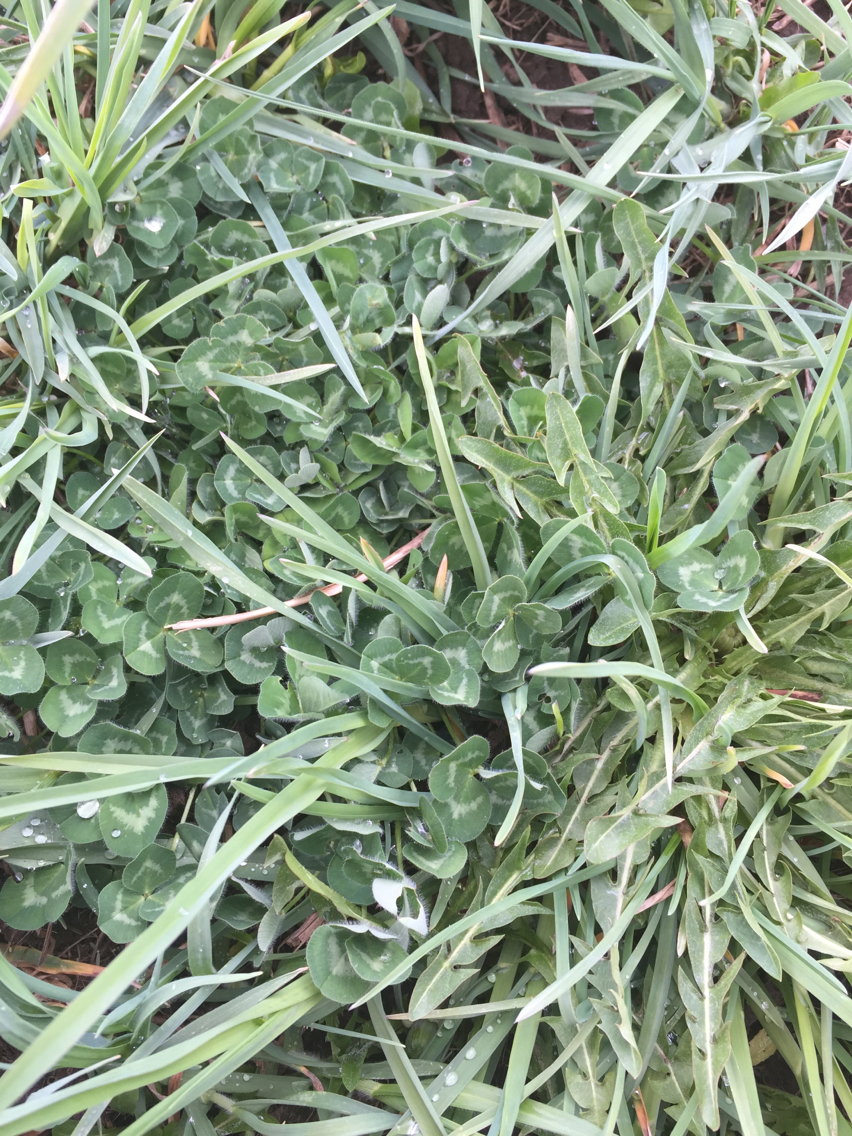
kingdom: Plantae
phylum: Tracheophyta
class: Magnoliopsida
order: Fabales
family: Fabaceae
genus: Trifolium
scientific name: Trifolium pratense
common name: Red clover
